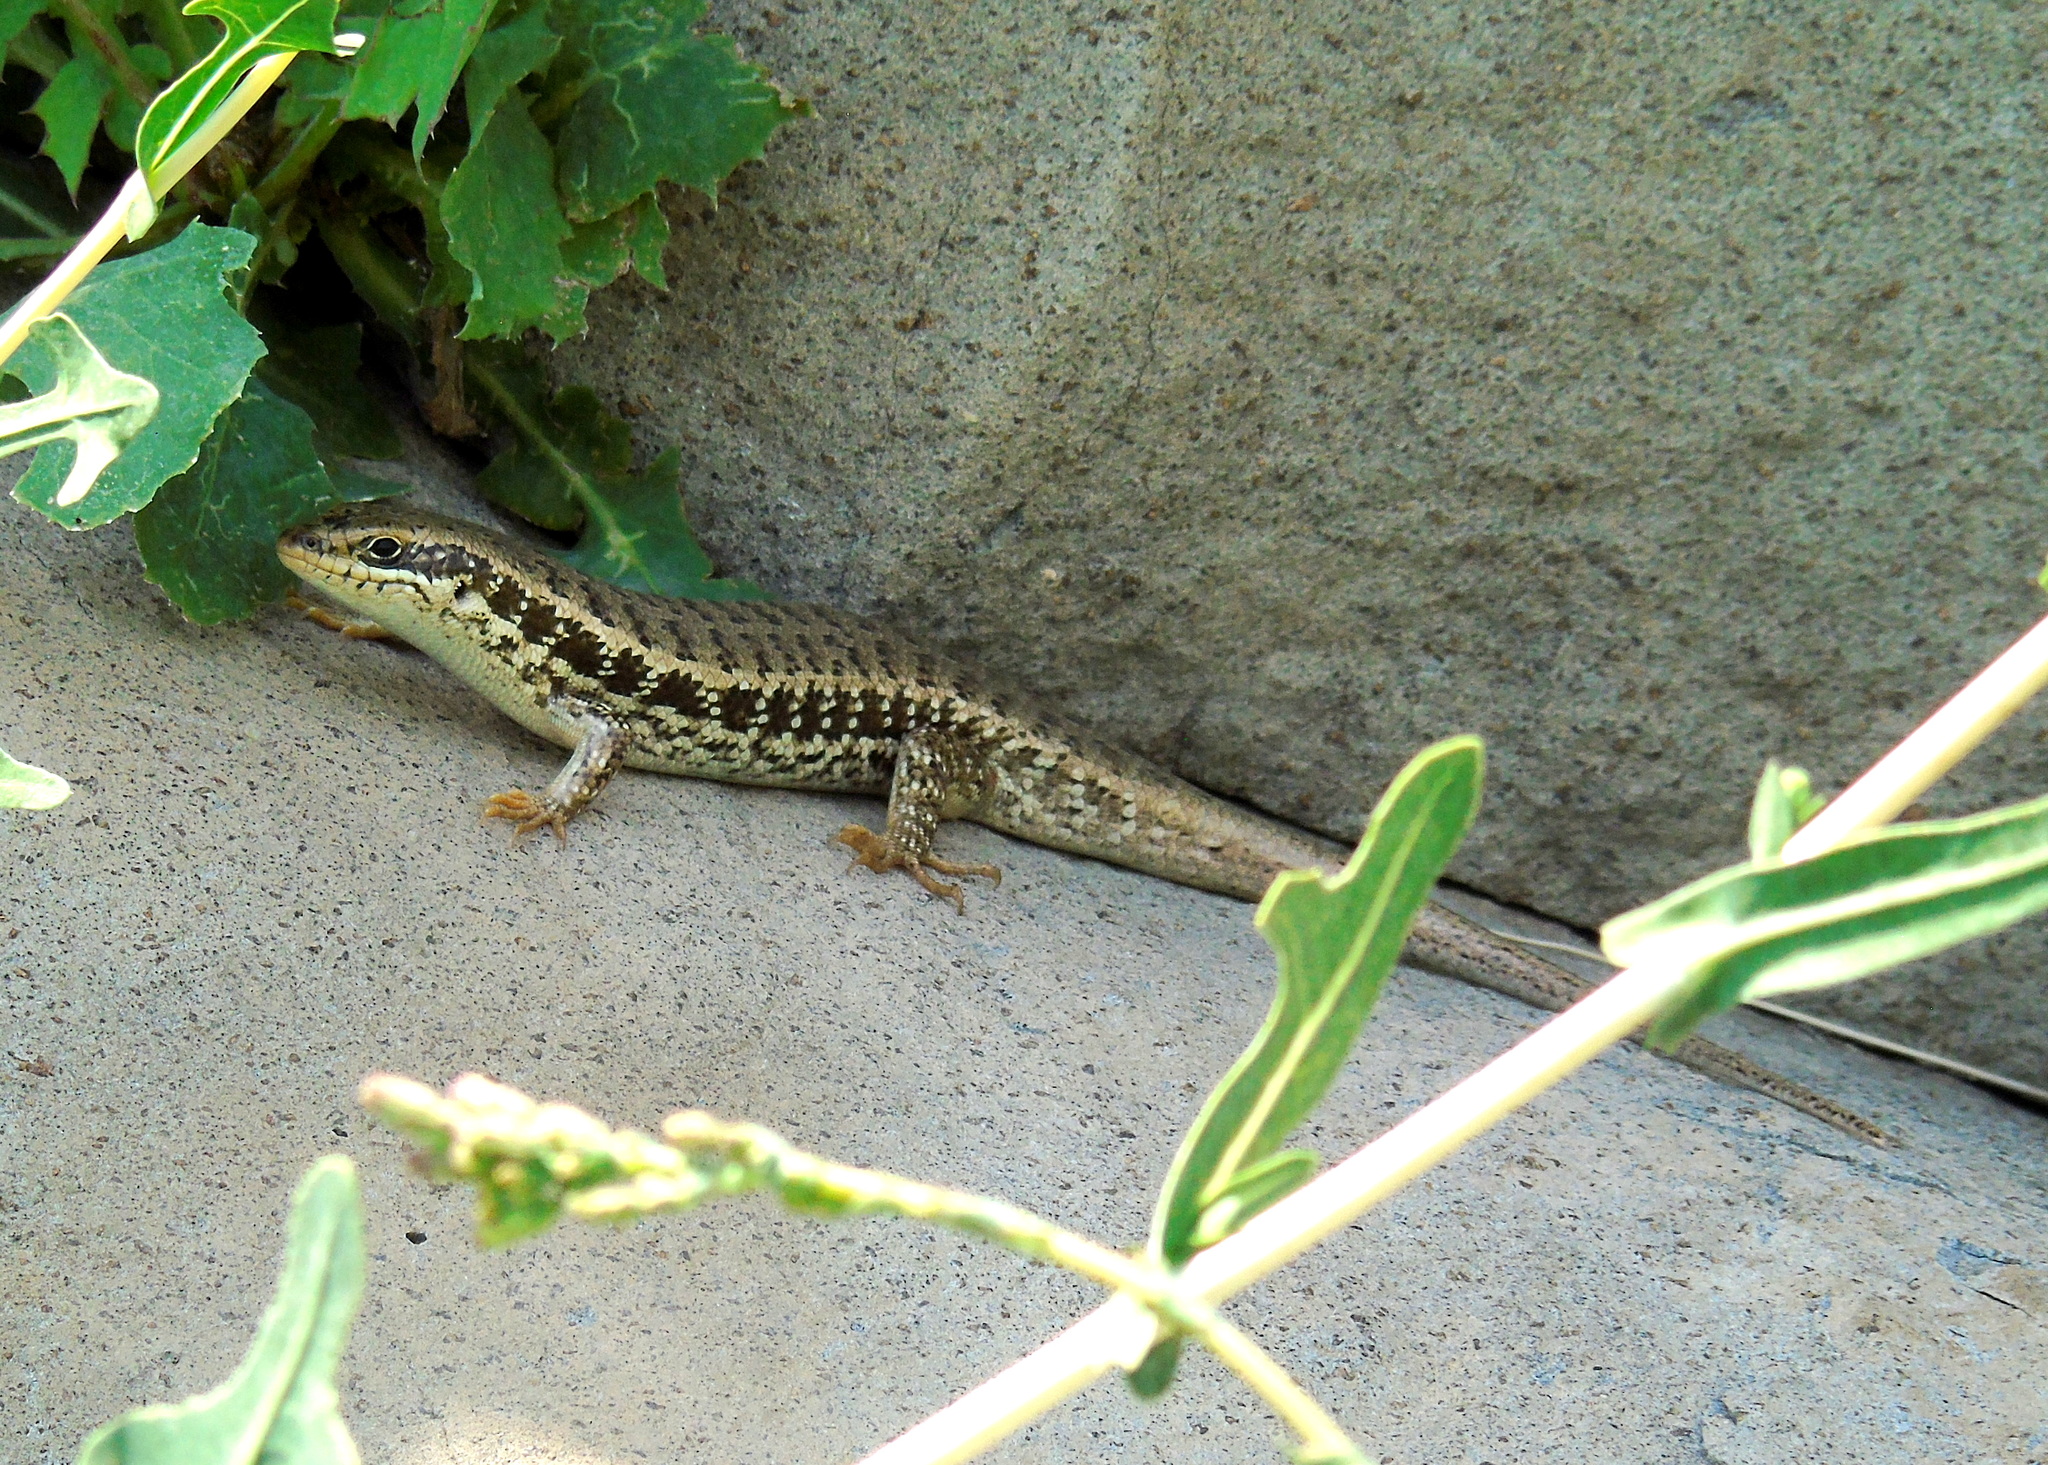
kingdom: Animalia
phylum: Chordata
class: Squamata
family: Scincidae
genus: Heremites
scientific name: Heremites auratus
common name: Golden grass mabuya
